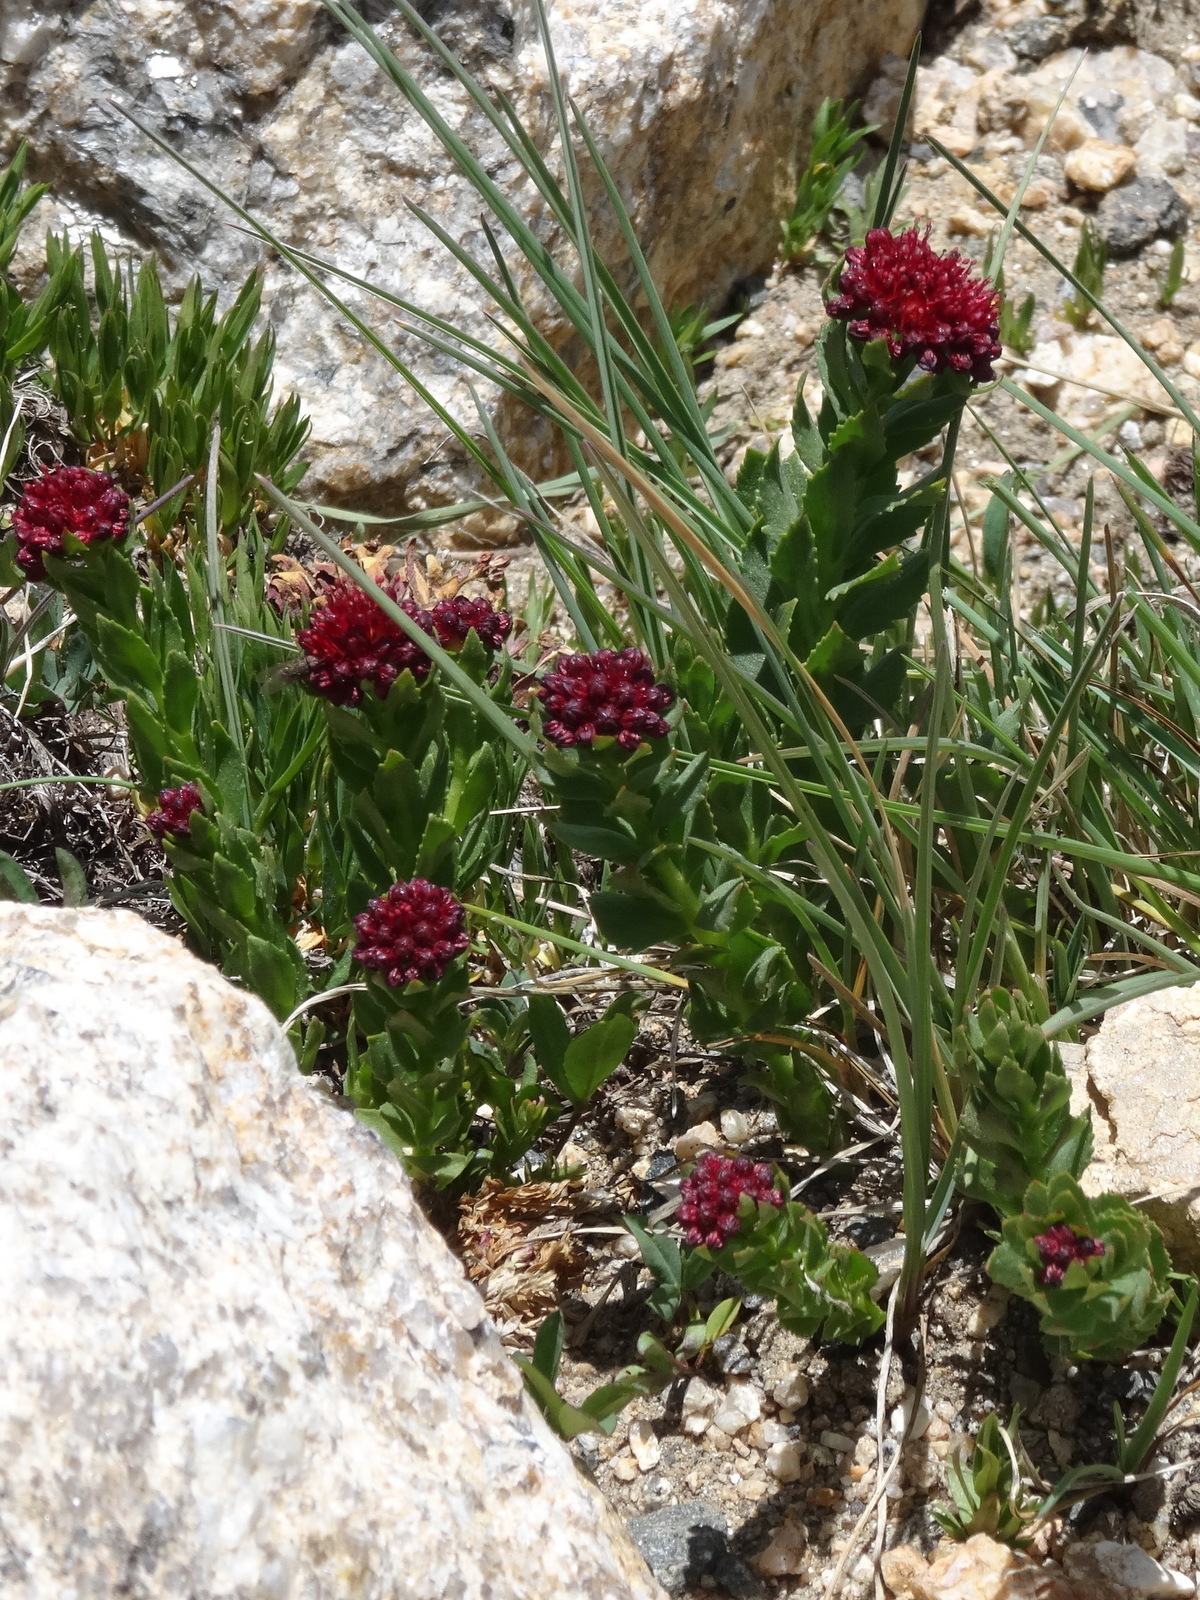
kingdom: Plantae
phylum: Tracheophyta
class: Magnoliopsida
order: Saxifragales
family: Crassulaceae
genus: Rhodiola
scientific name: Rhodiola integrifolia
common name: Western roseroot
